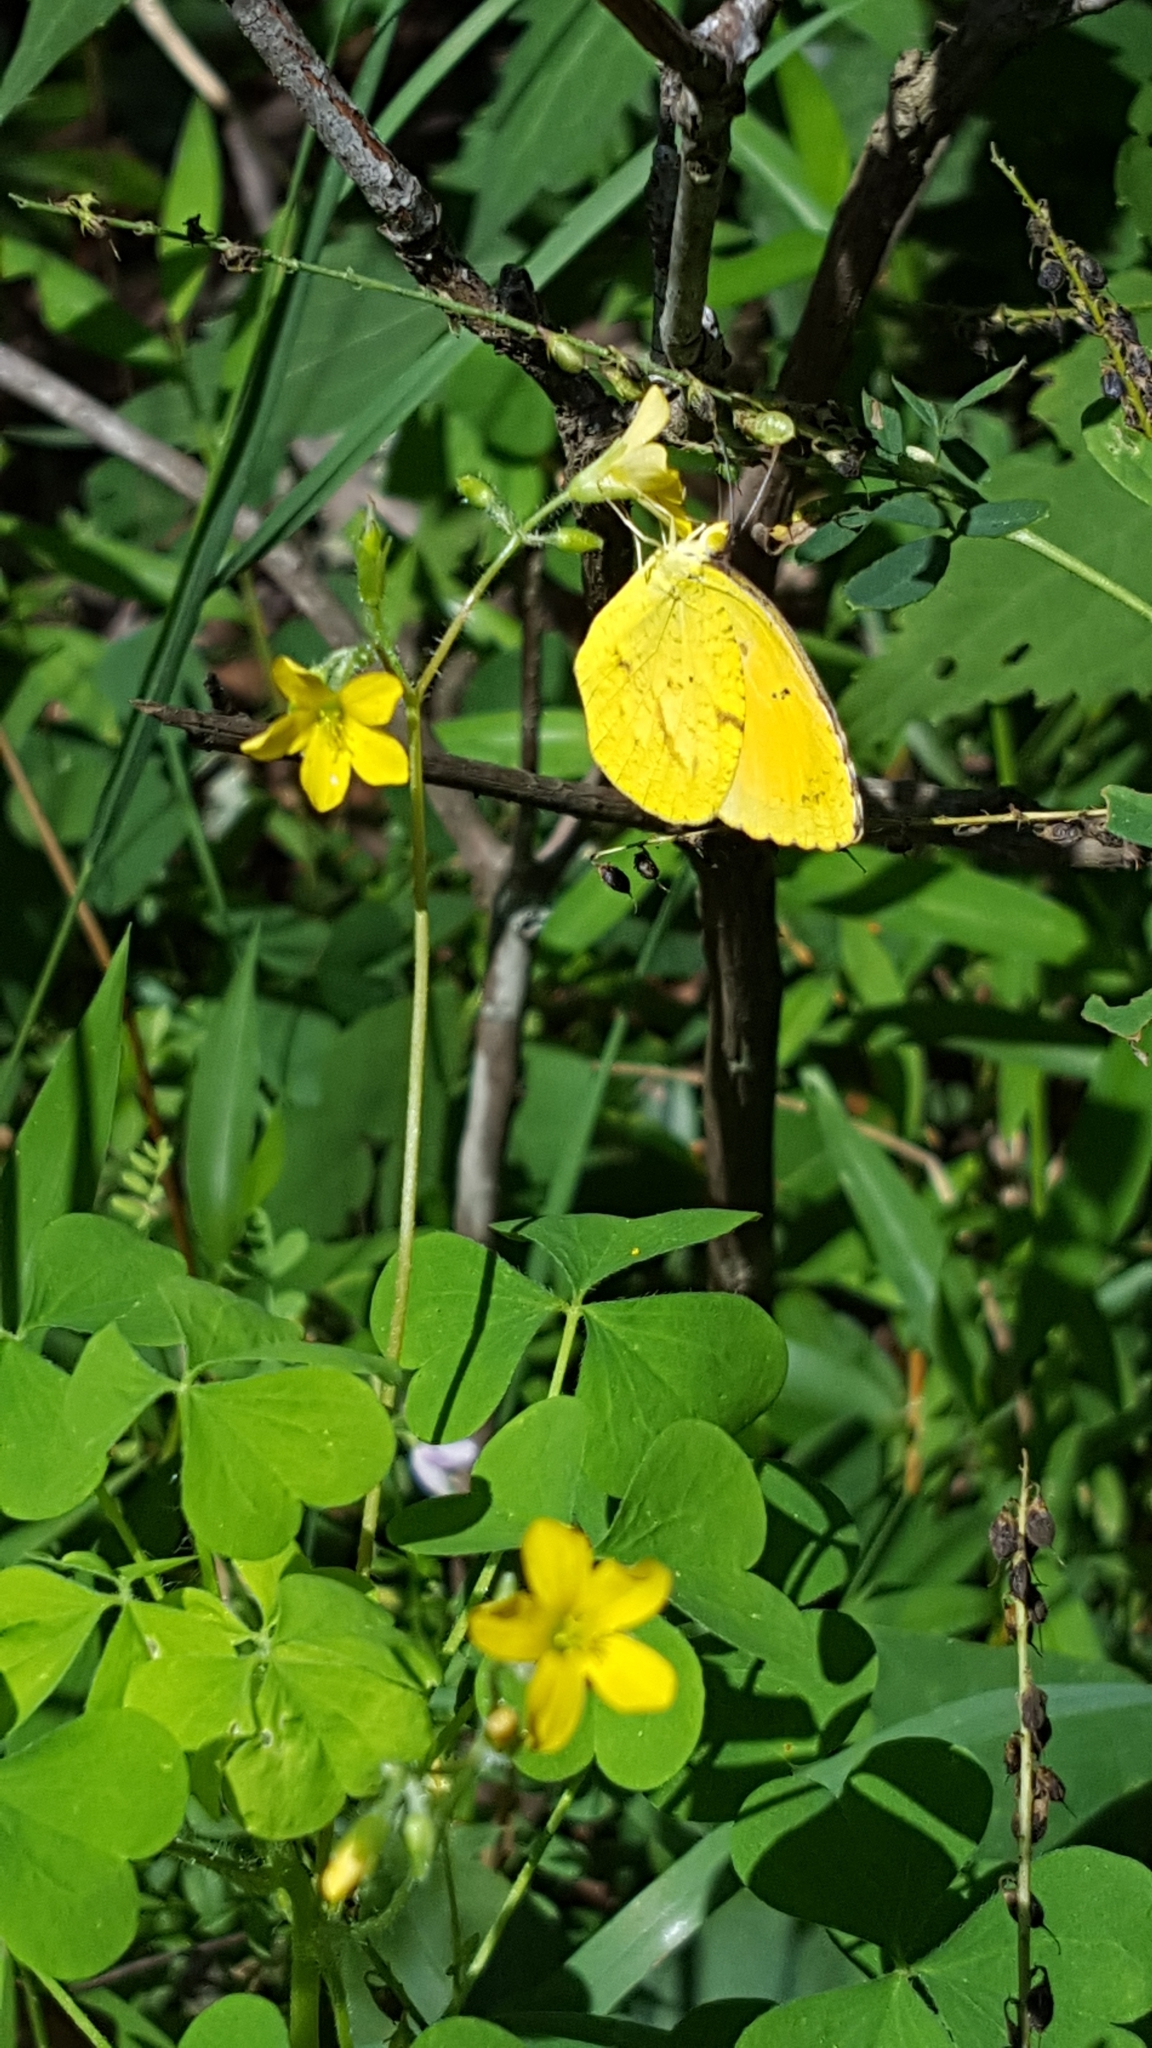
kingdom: Animalia
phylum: Arthropoda
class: Insecta
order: Lepidoptera
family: Pieridae
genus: Abaeis
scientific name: Abaeis nicippe
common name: Sleepy orange
